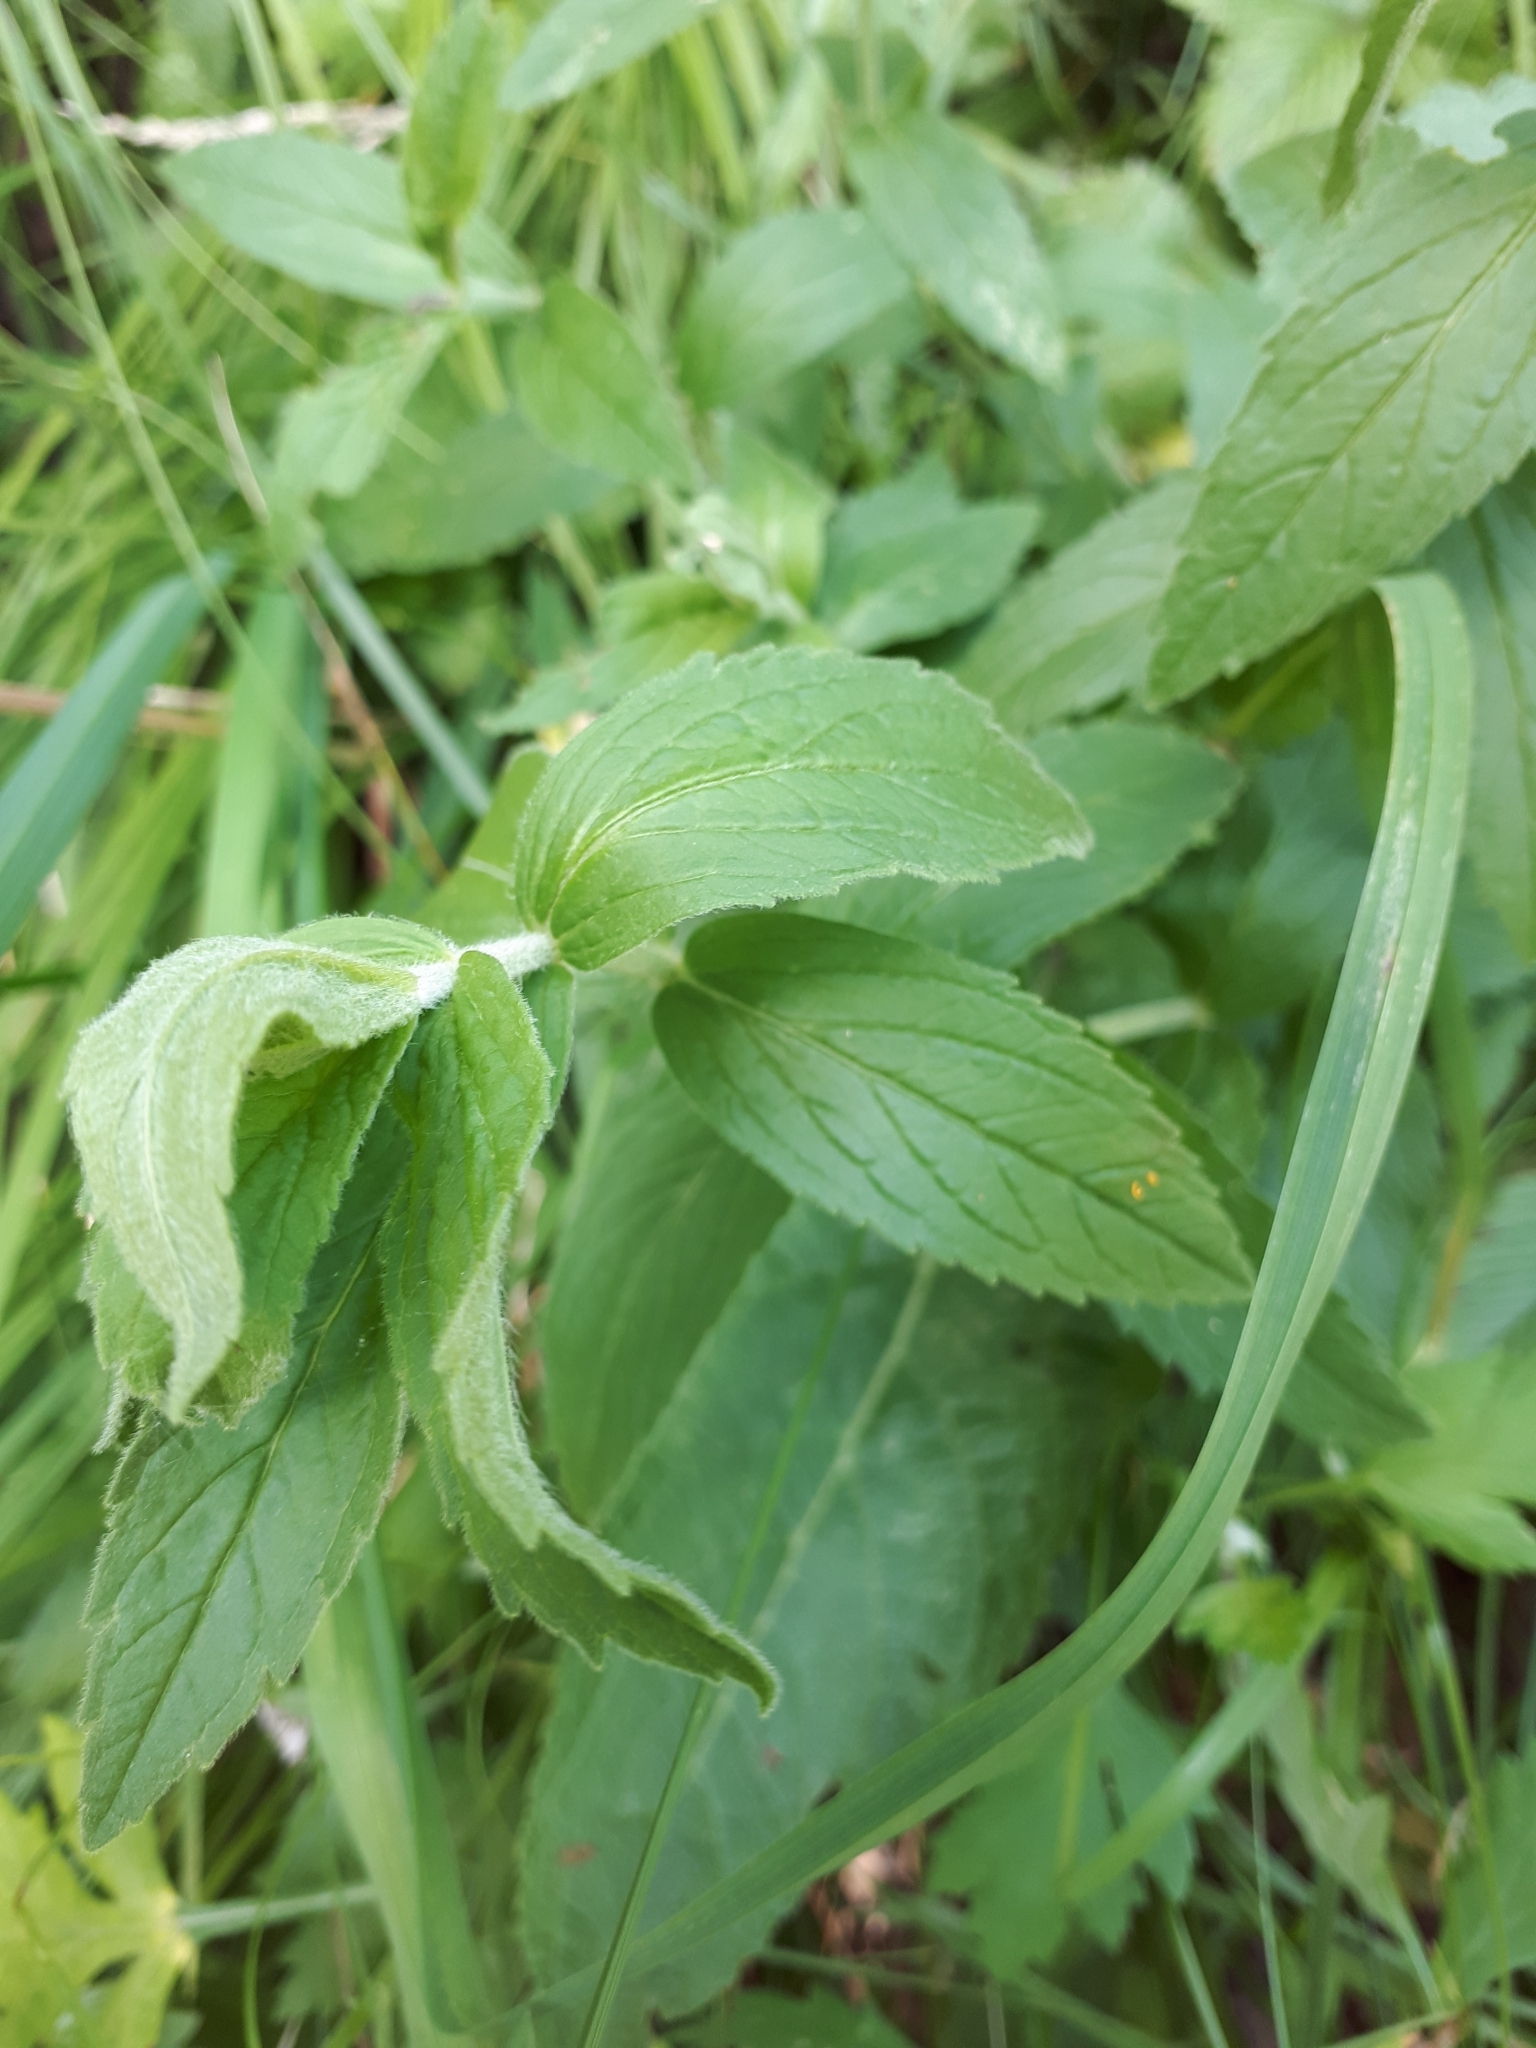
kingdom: Plantae
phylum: Tracheophyta
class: Magnoliopsida
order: Lamiales
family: Lamiaceae
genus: Stachys
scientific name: Stachys palustris
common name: Marsh woundwort
